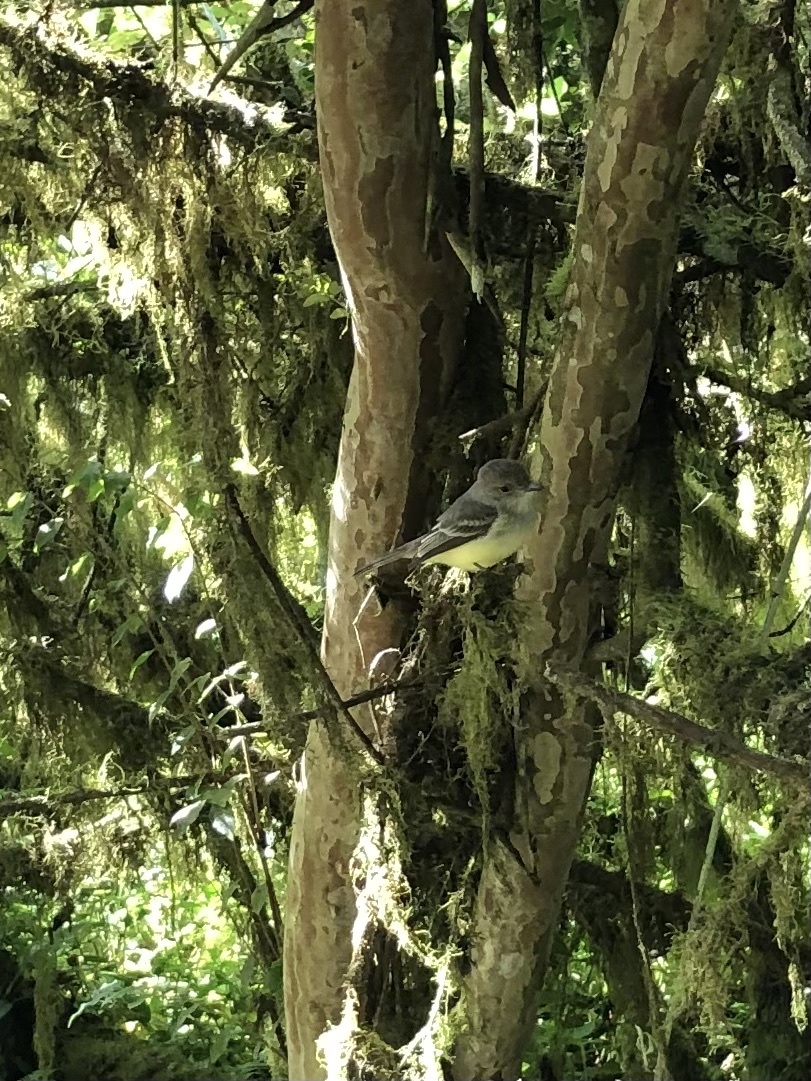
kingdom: Animalia
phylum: Chordata
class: Aves
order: Passeriformes
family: Tyrannidae
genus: Myiarchus
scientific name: Myiarchus magnirostris
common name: Galapagos flycatcher
